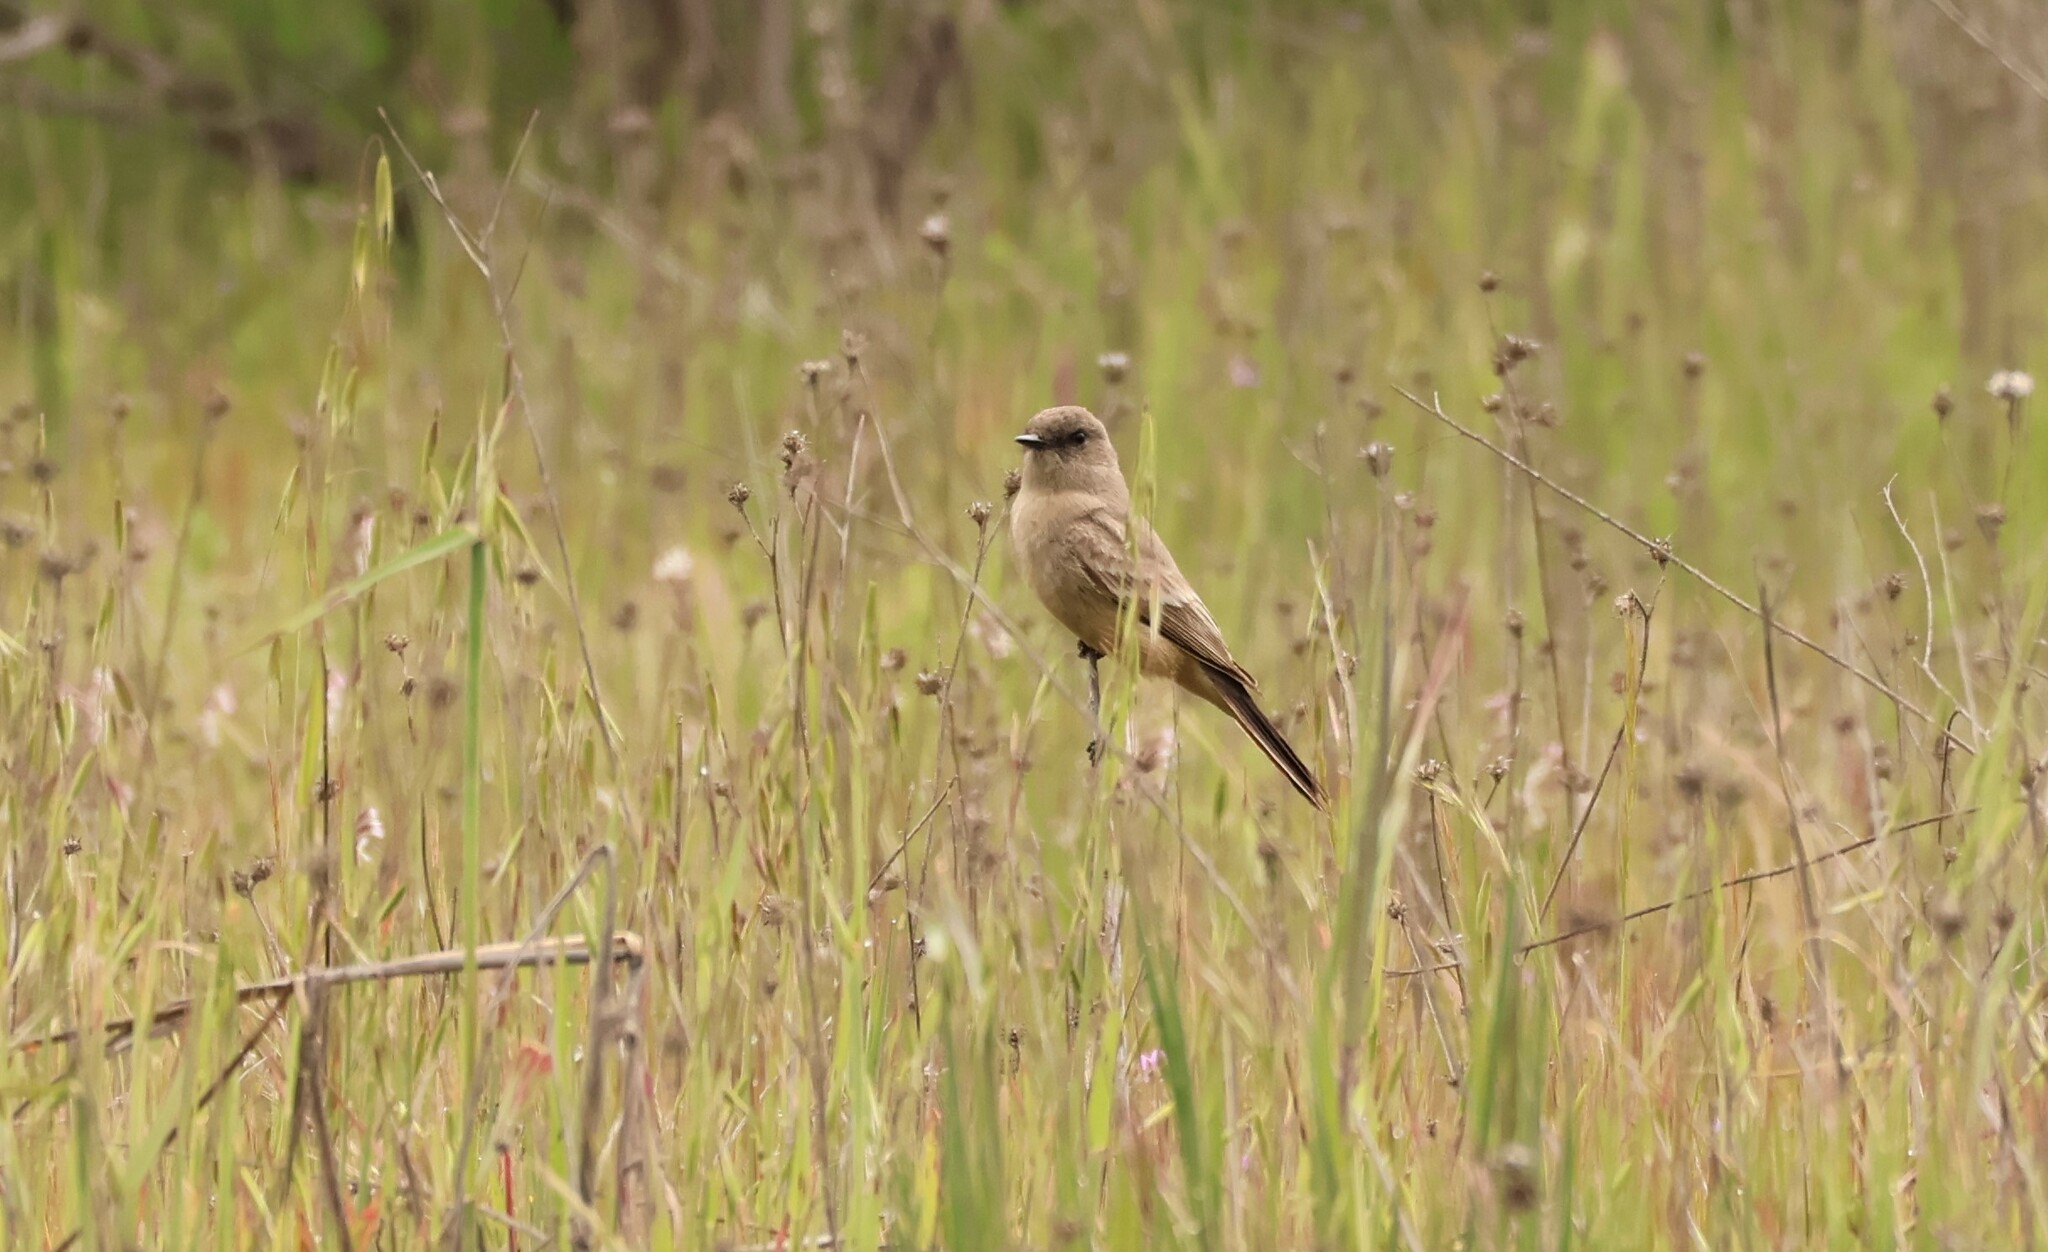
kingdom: Animalia
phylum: Chordata
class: Aves
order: Passeriformes
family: Tyrannidae
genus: Sayornis
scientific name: Sayornis saya
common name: Say's phoebe
